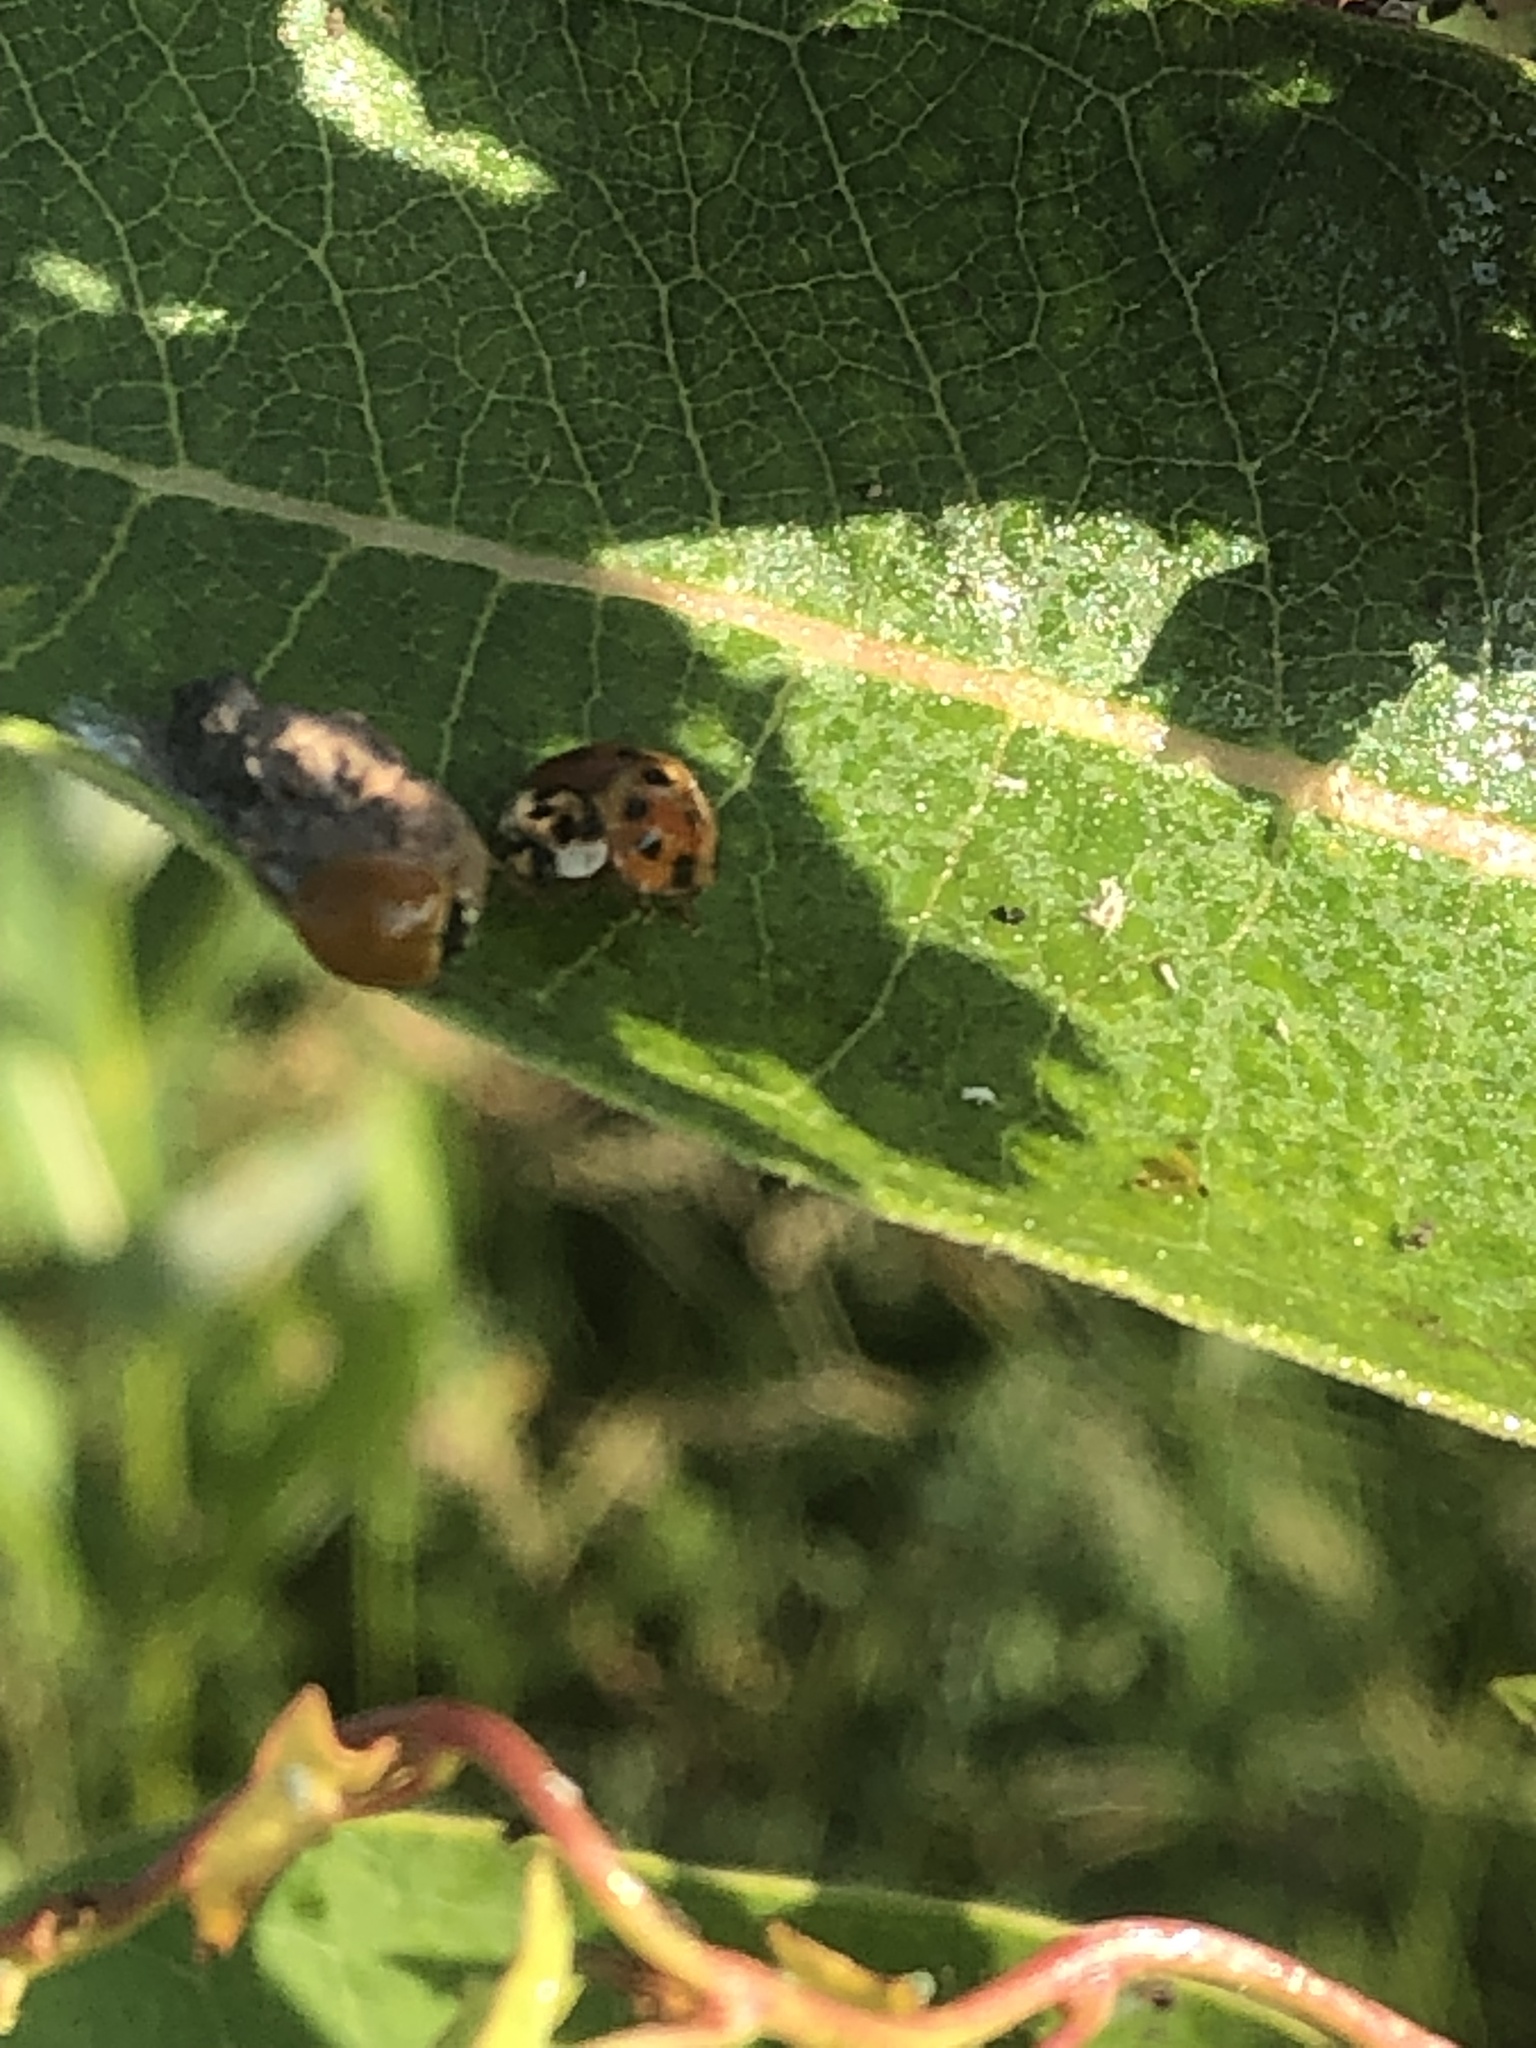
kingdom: Animalia
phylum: Arthropoda
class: Insecta
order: Coleoptera
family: Coccinellidae
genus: Harmonia
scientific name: Harmonia axyridis
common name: Harlequin ladybird
